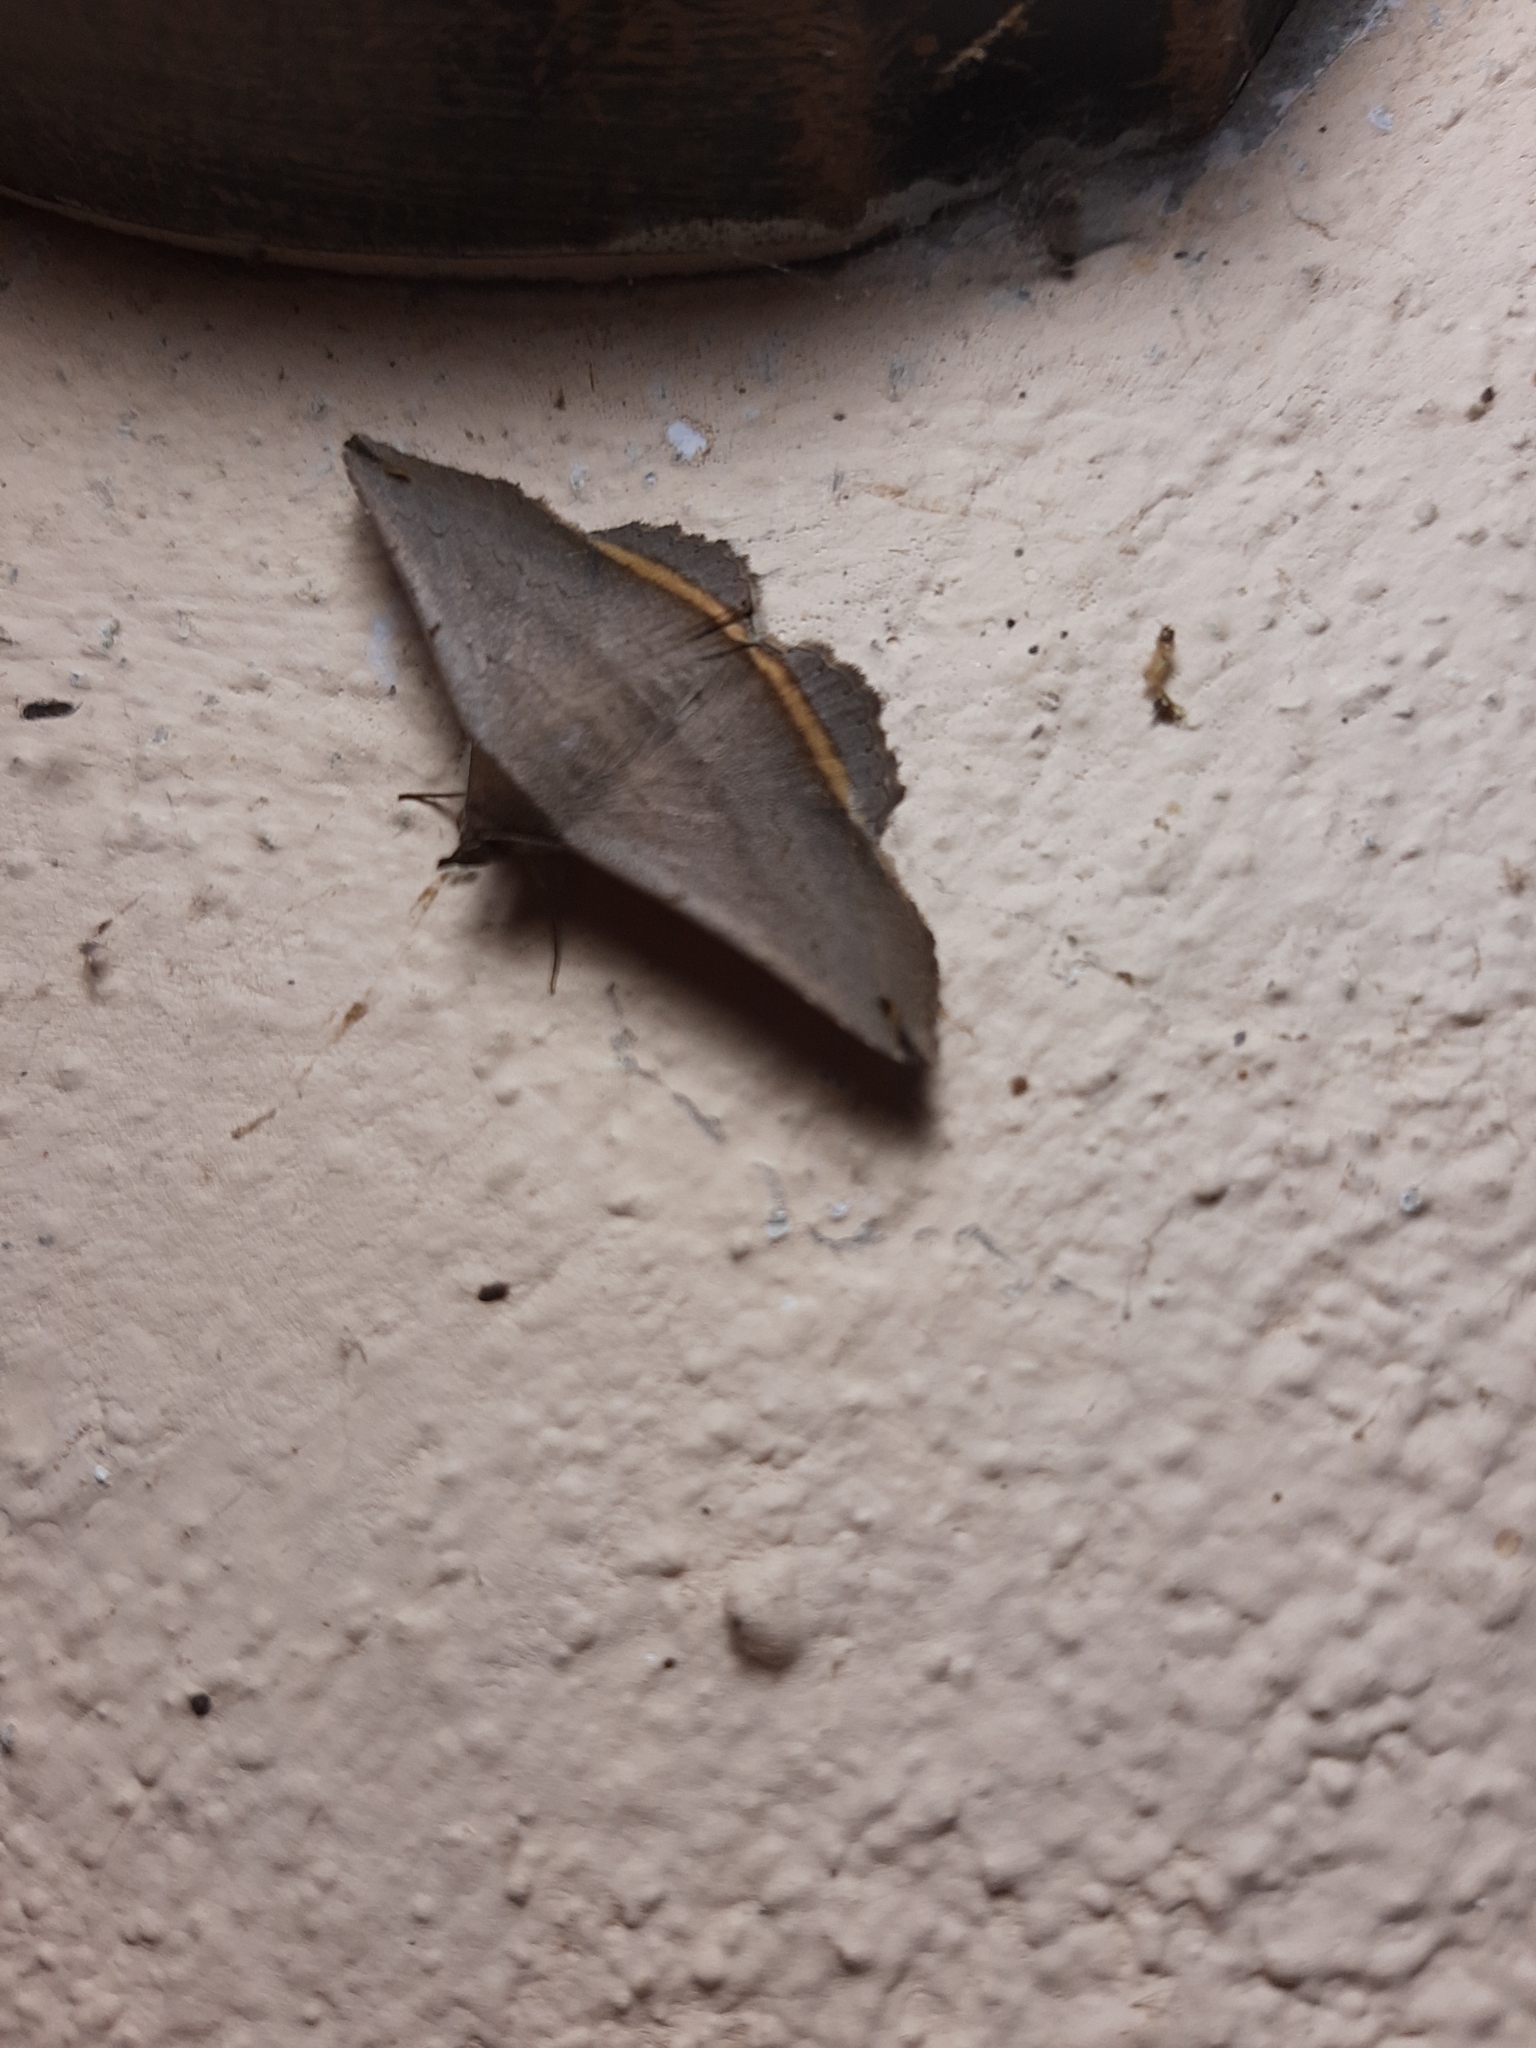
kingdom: Animalia
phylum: Arthropoda
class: Insecta
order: Lepidoptera
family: Erebidae
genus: Lesmone
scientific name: Lesmone formularis
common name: Lesmone moth
